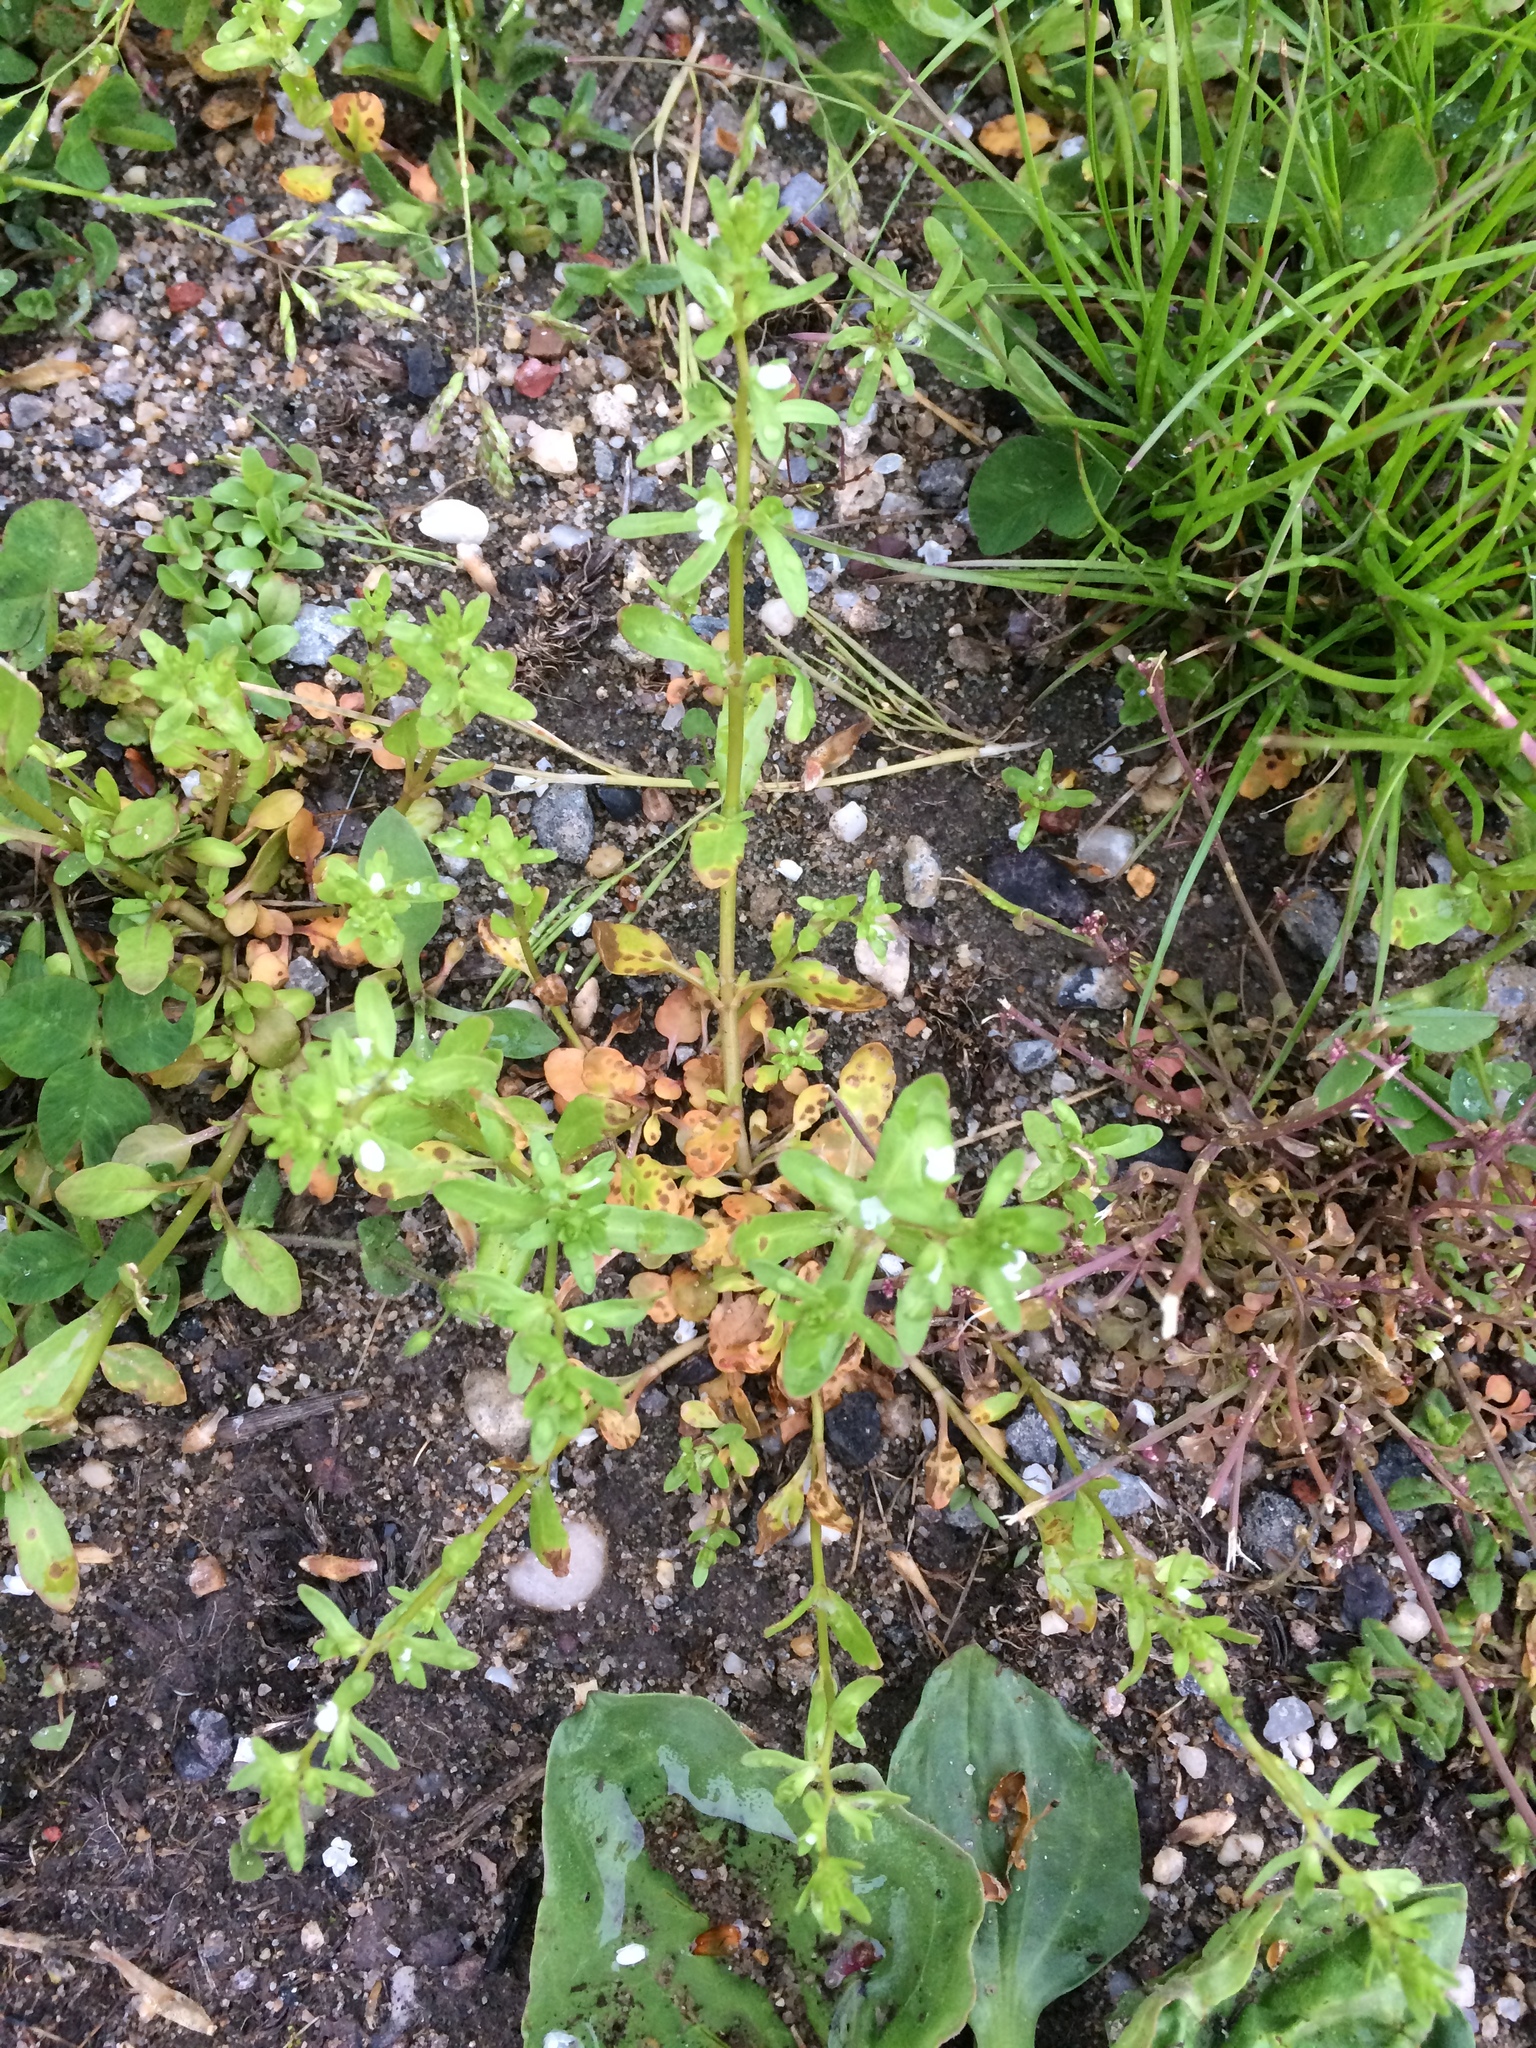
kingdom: Plantae
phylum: Tracheophyta
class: Magnoliopsida
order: Lamiales
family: Plantaginaceae
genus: Veronica
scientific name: Veronica peregrina
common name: Neckweed
